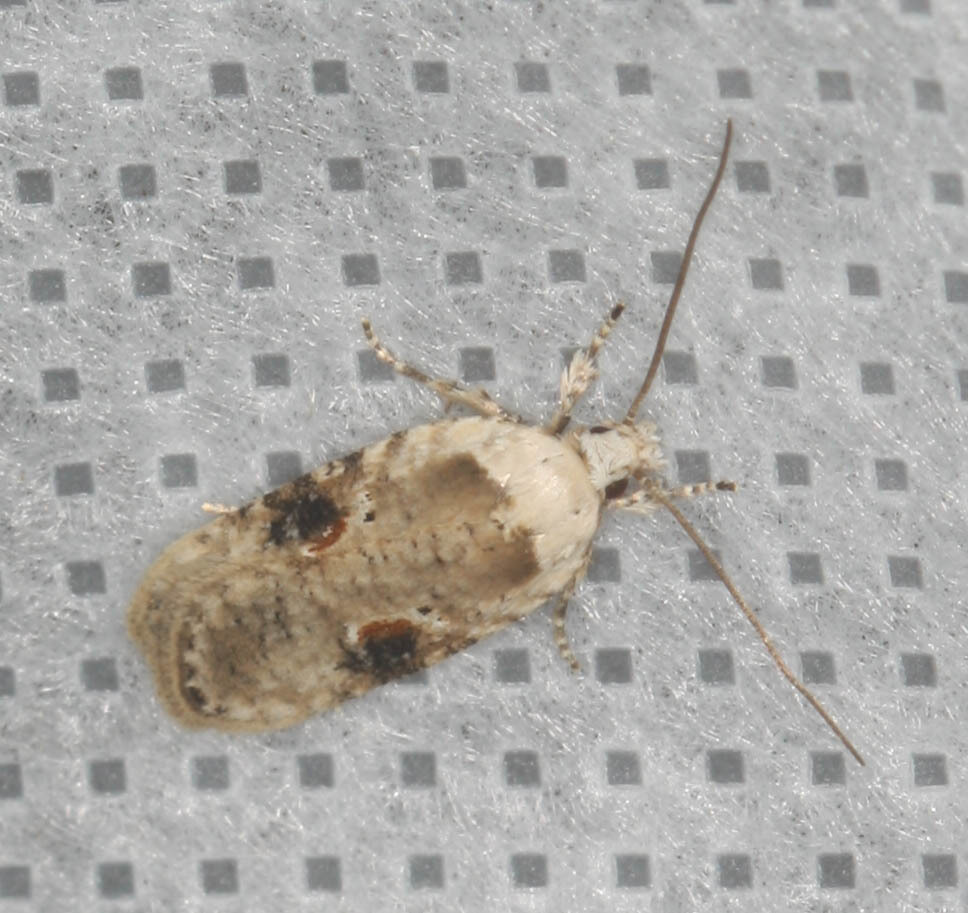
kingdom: Animalia
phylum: Arthropoda
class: Insecta
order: Lepidoptera
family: Depressariidae
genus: Agonopterix
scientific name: Agonopterix alstroemeriana
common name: Moth
